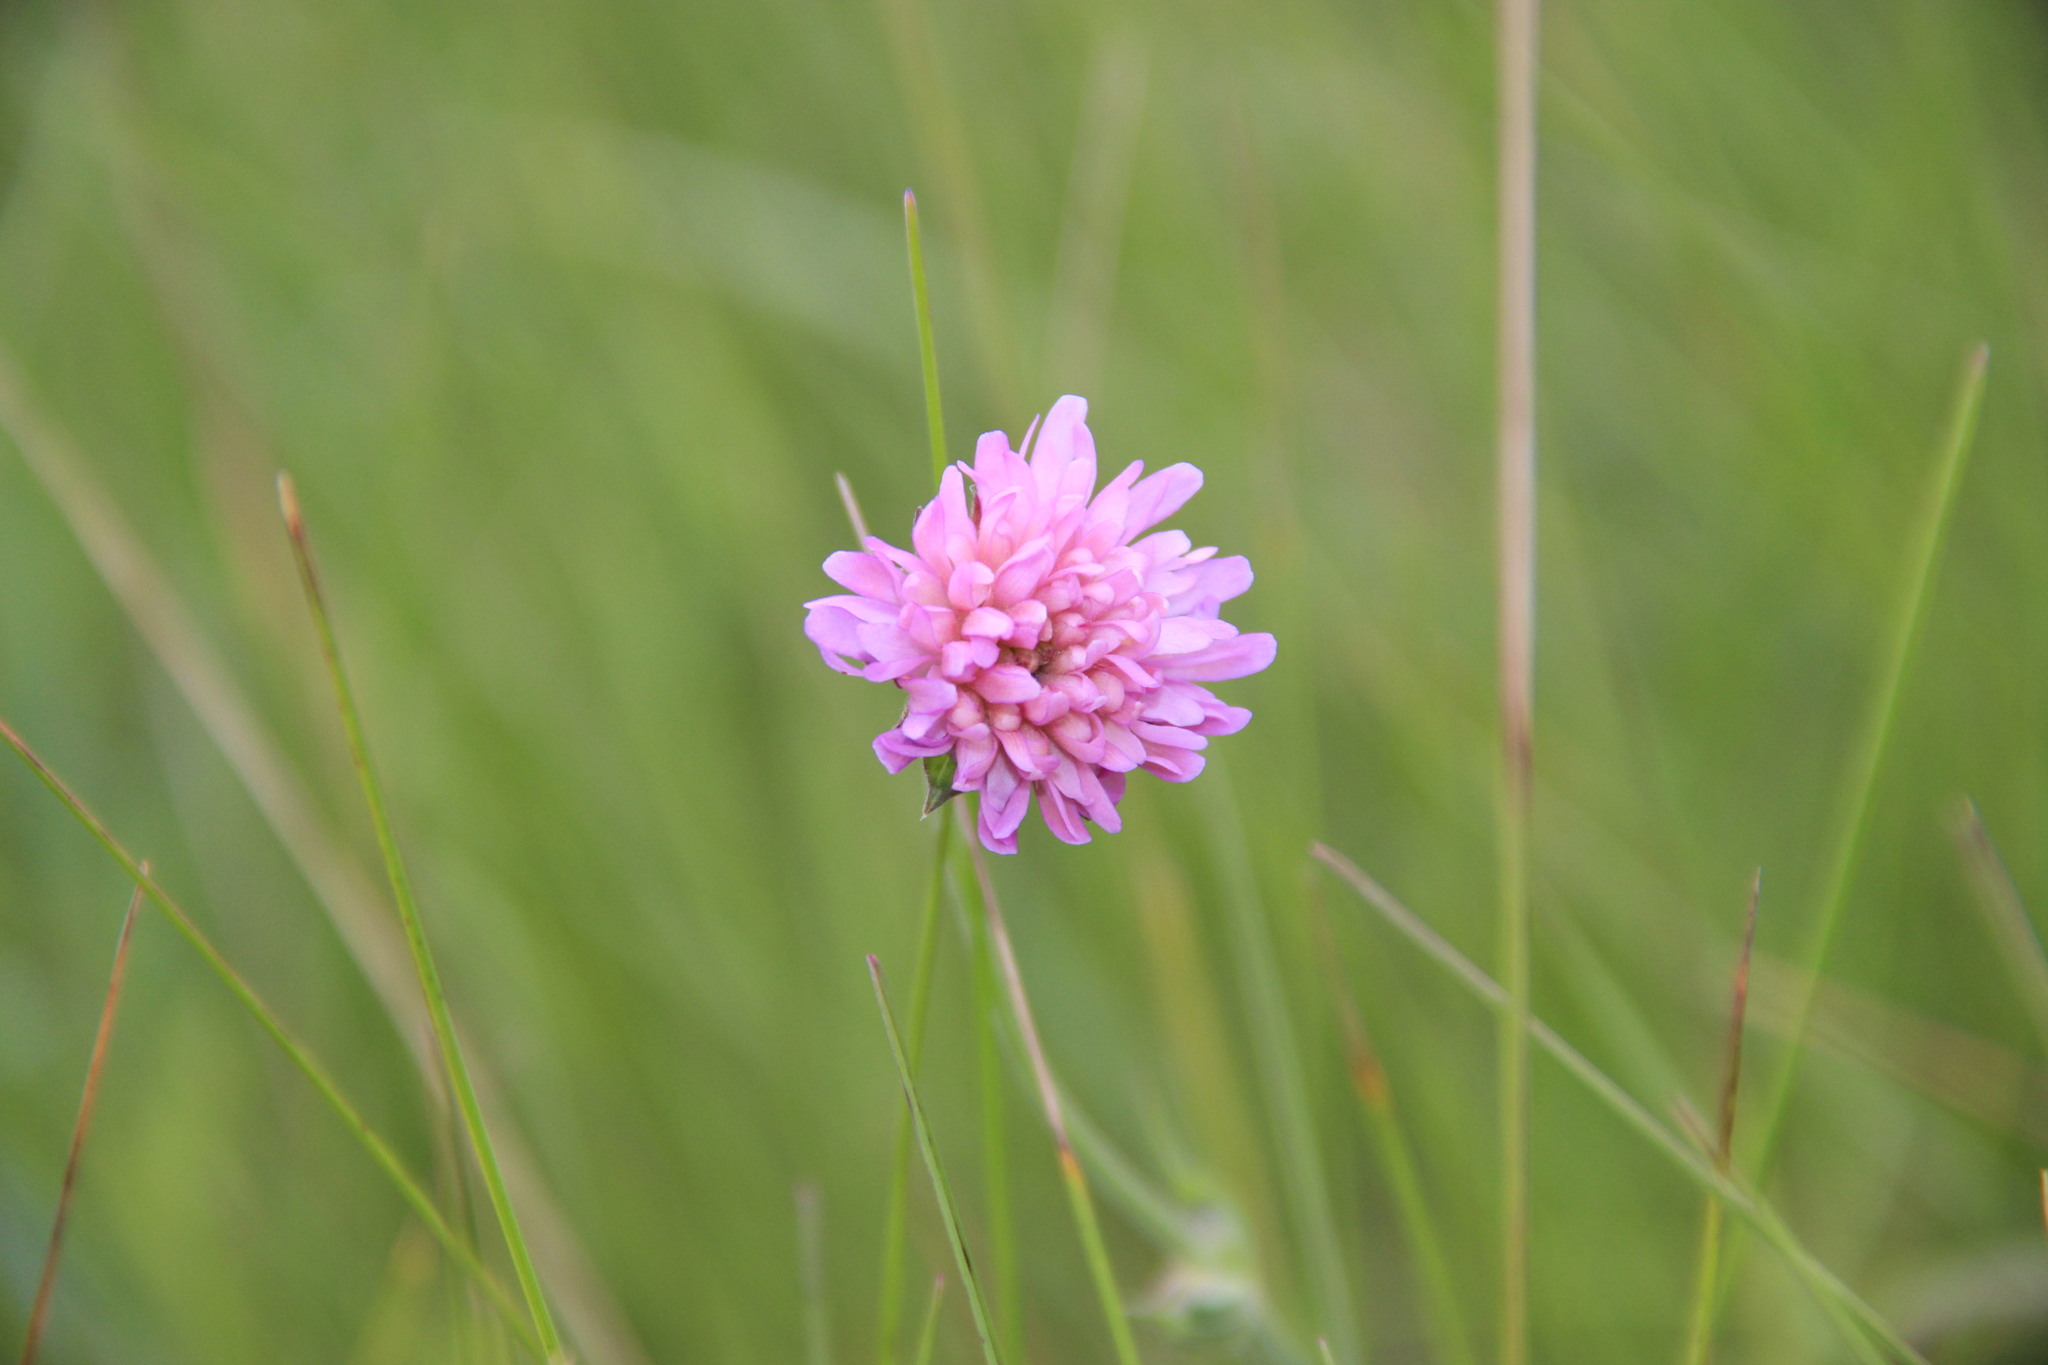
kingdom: Plantae
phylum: Tracheophyta
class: Magnoliopsida
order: Dipsacales
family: Caprifoliaceae
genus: Knautia
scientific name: Knautia arvensis
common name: Field scabiosa
